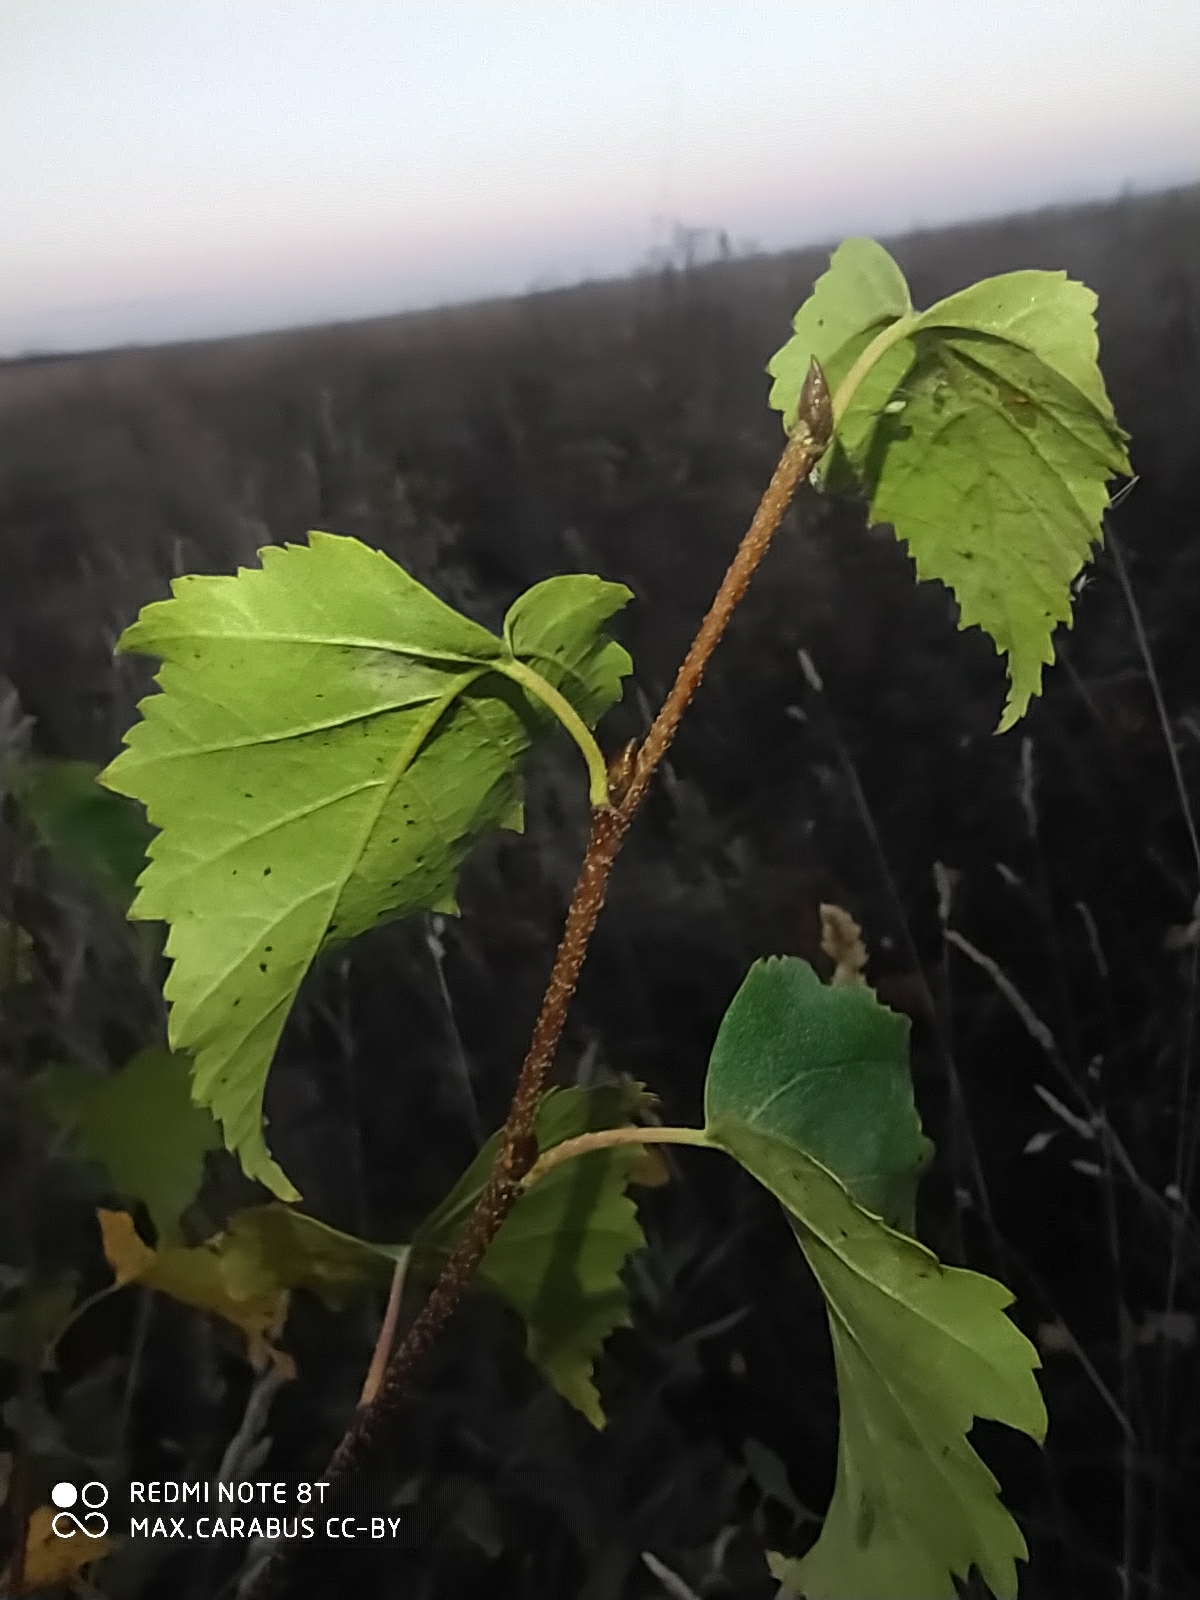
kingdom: Plantae
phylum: Tracheophyta
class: Magnoliopsida
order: Fagales
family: Betulaceae
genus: Betula
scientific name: Betula pendula
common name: Silver birch
